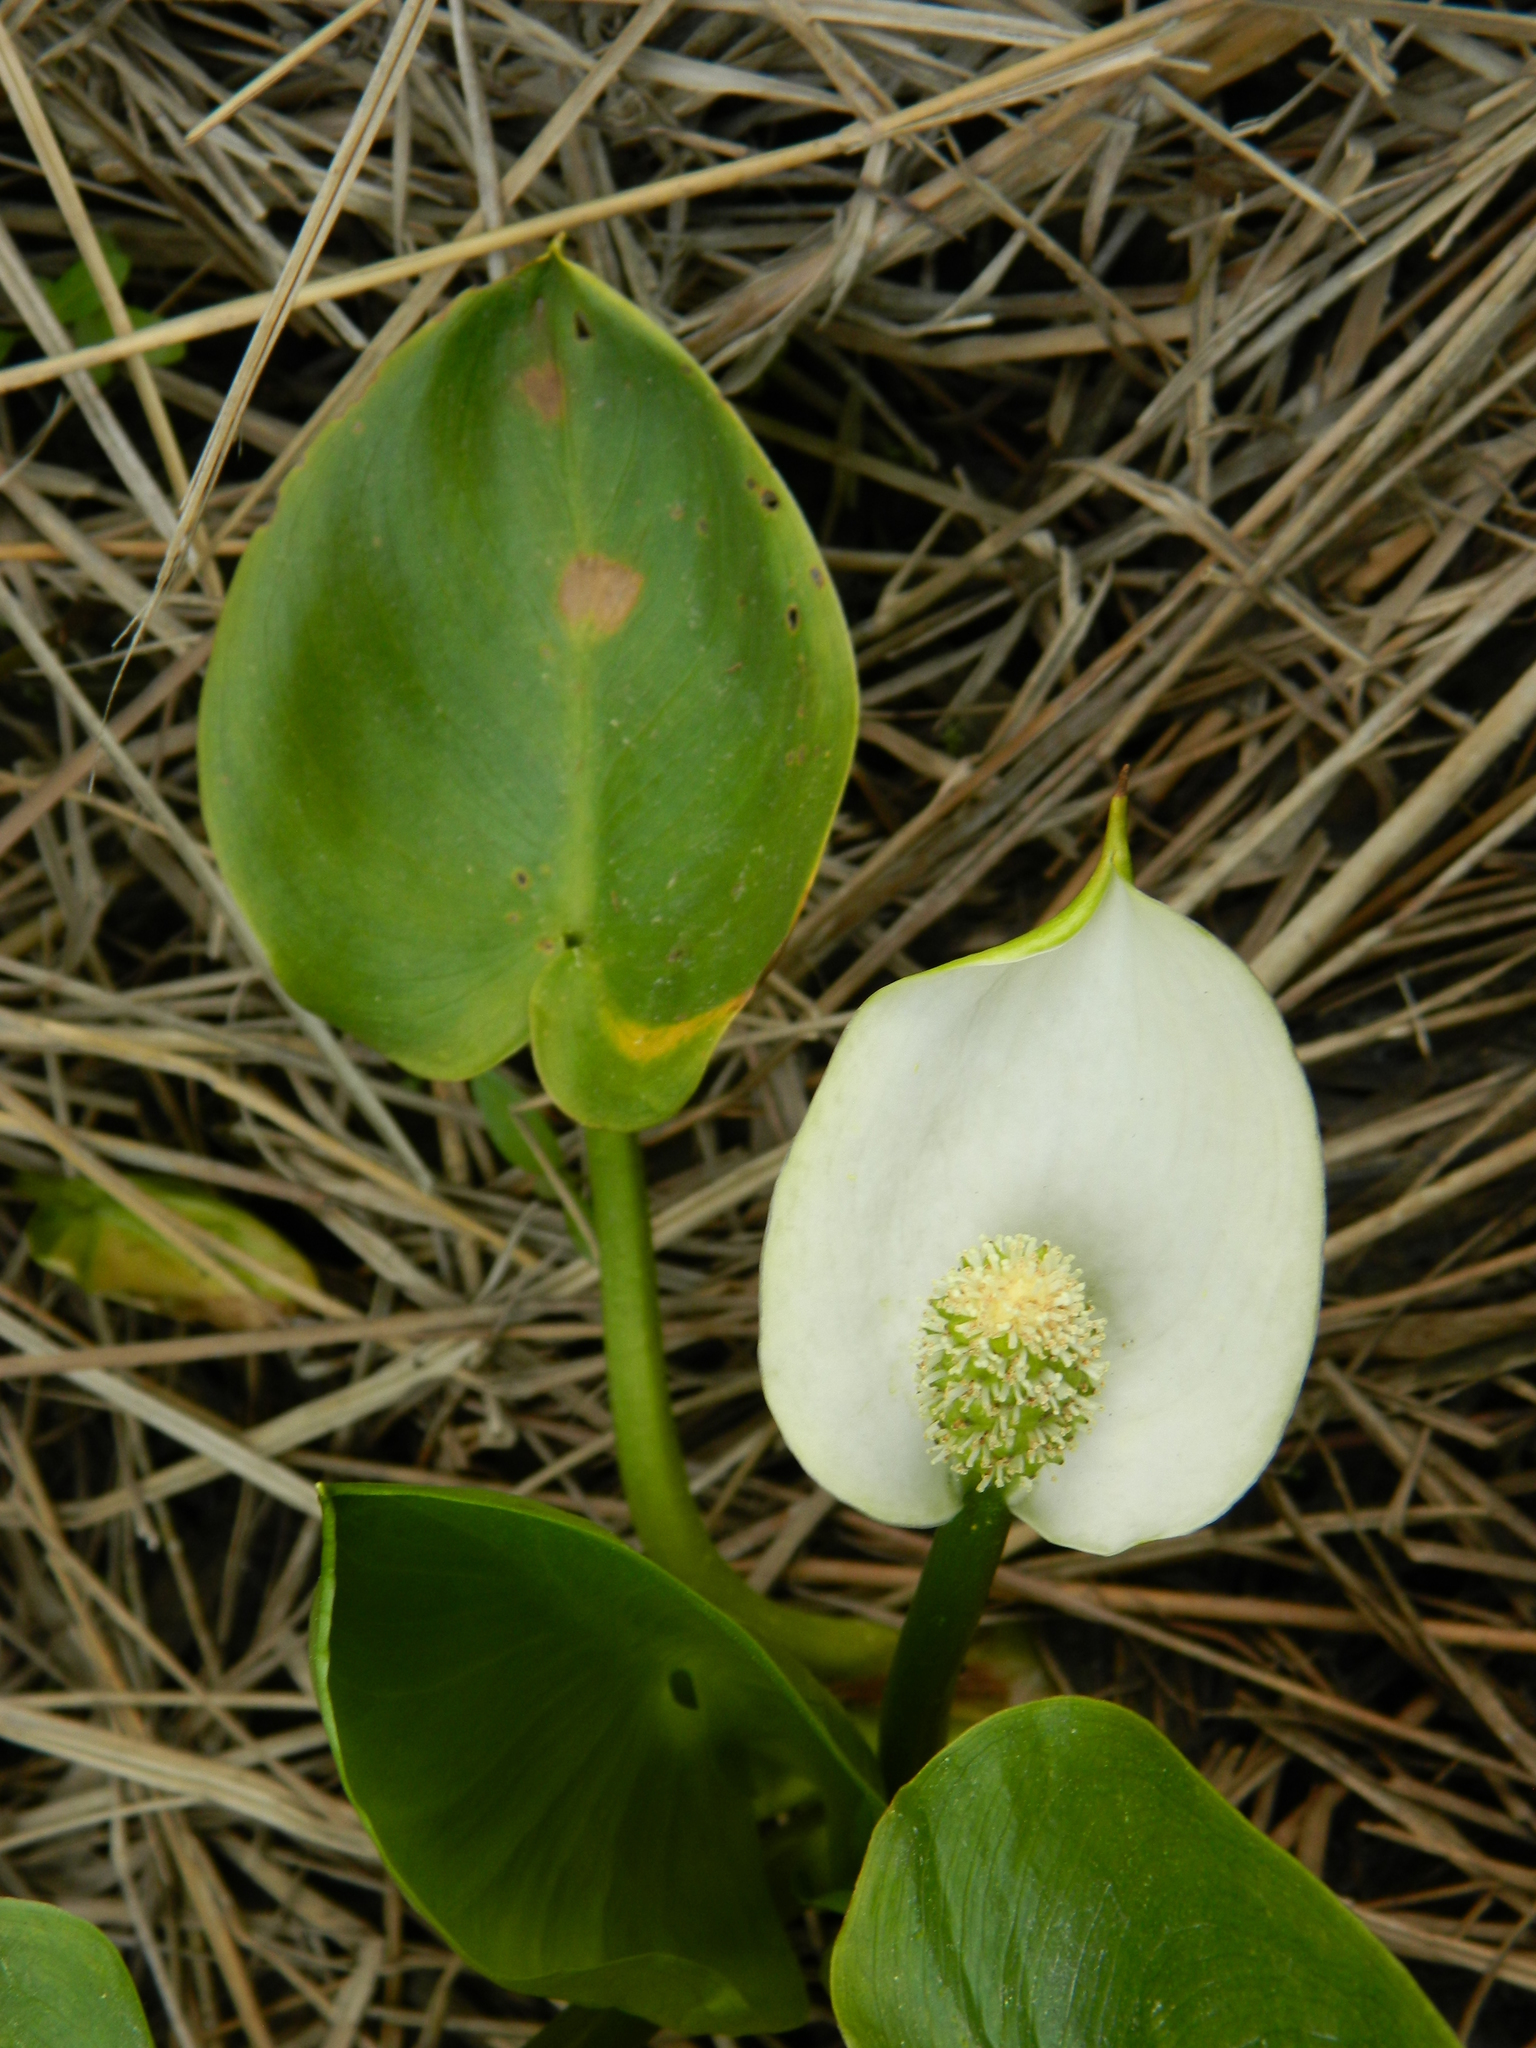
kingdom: Plantae
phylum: Tracheophyta
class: Liliopsida
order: Alismatales
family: Araceae
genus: Calla
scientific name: Calla palustris
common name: Bog arum
